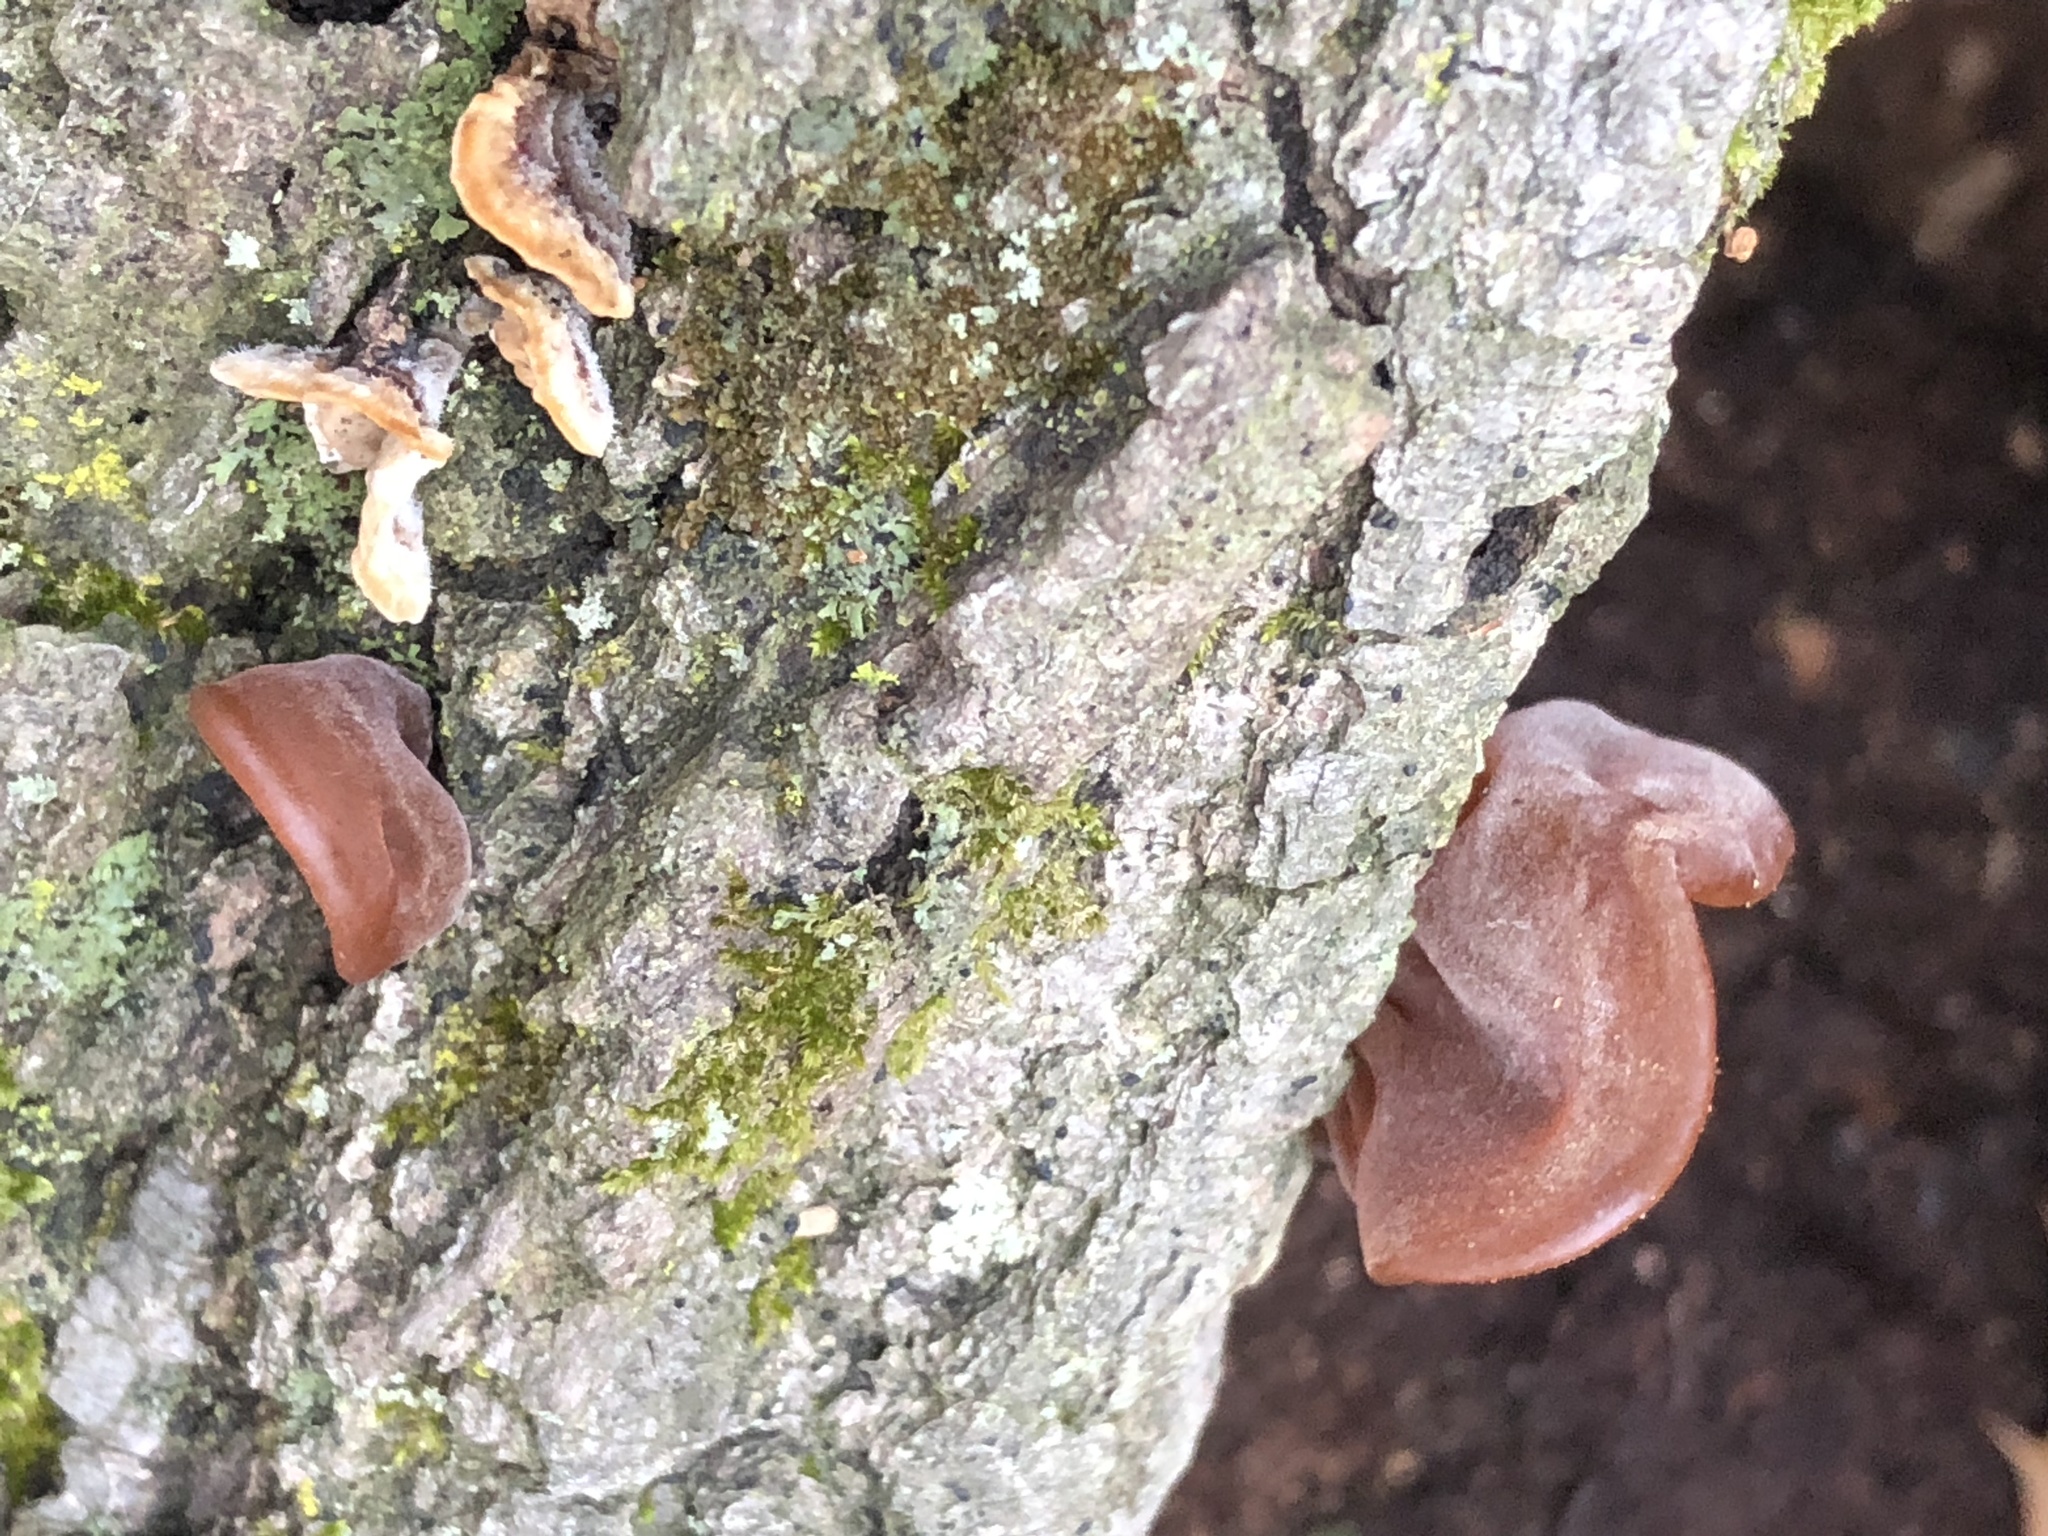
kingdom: Fungi
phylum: Basidiomycota
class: Agaricomycetes
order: Auriculariales
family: Auriculariaceae
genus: Auricularia
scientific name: Auricularia americana
